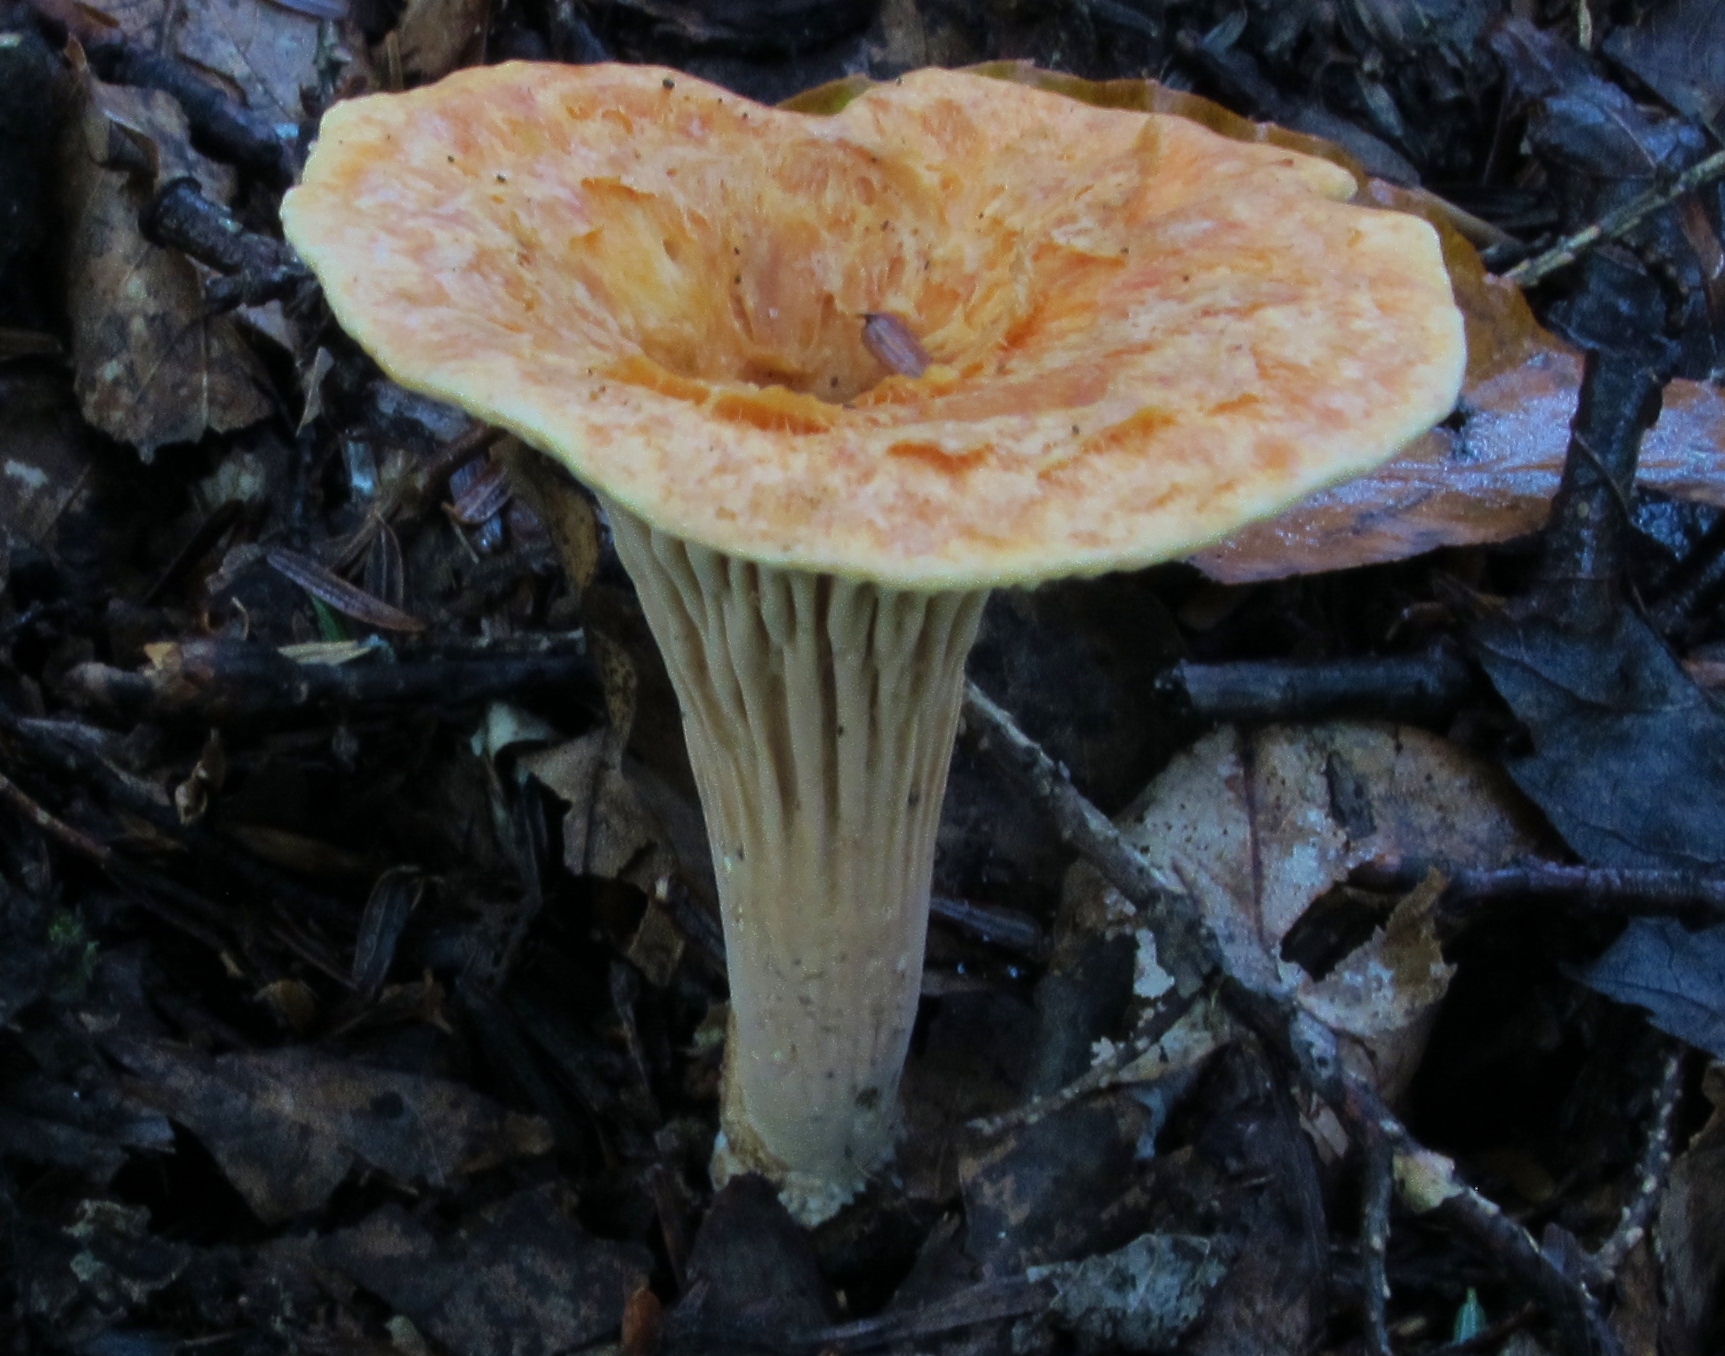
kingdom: Fungi
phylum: Basidiomycota
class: Agaricomycetes
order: Gomphales
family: Gomphaceae
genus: Turbinellus
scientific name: Turbinellus floccosus
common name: Scaly chanterelle
